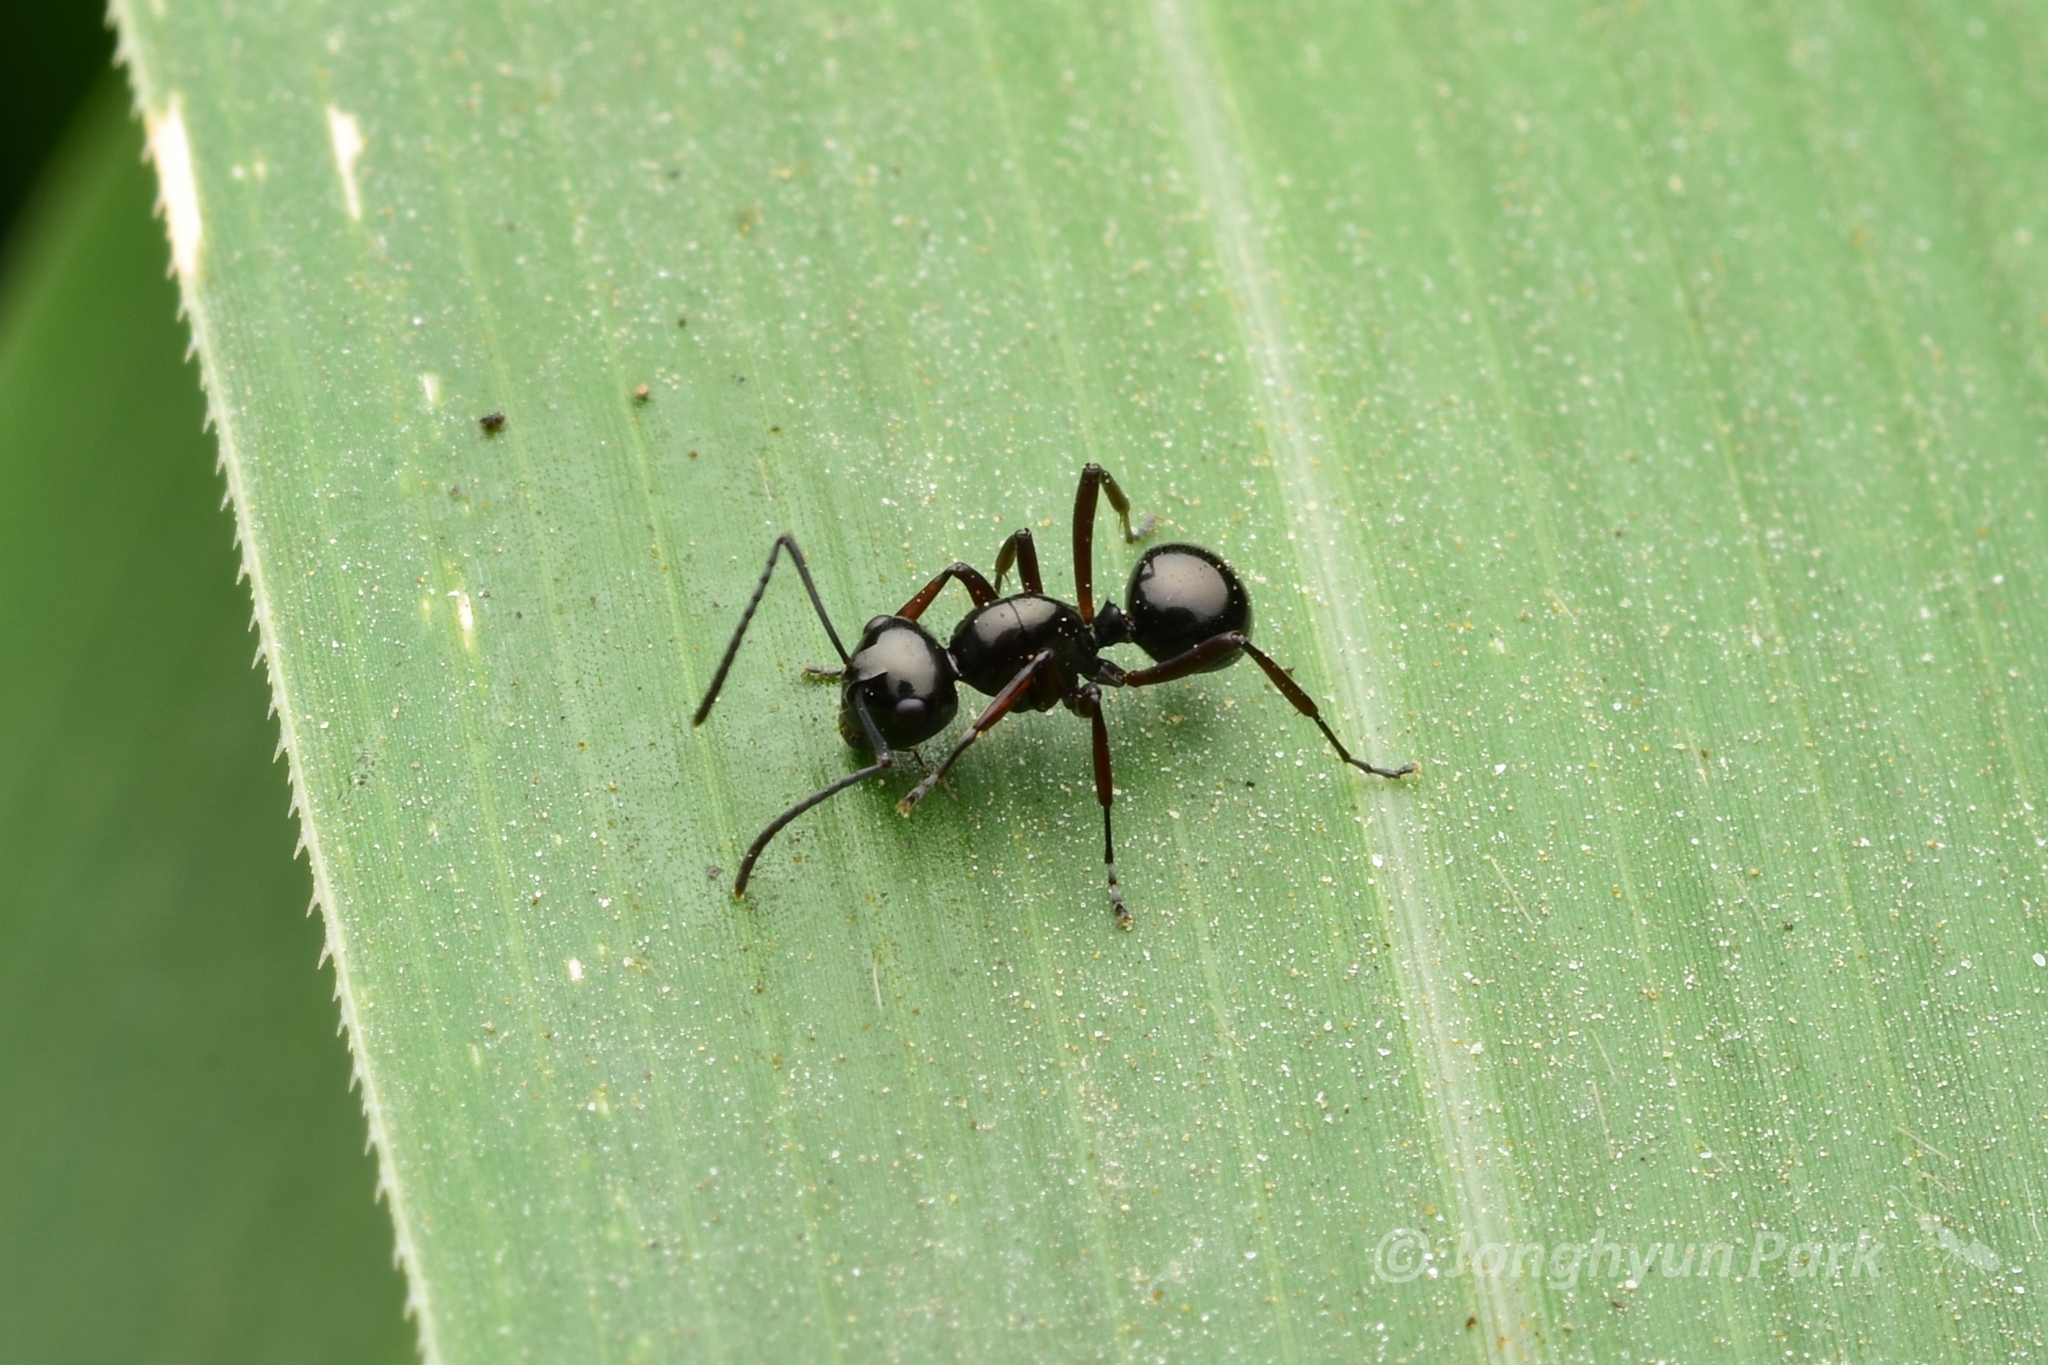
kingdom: Animalia
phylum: Arthropoda
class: Insecta
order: Hymenoptera
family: Formicidae
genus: Polyrhachis
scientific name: Polyrhachis abbreviata
